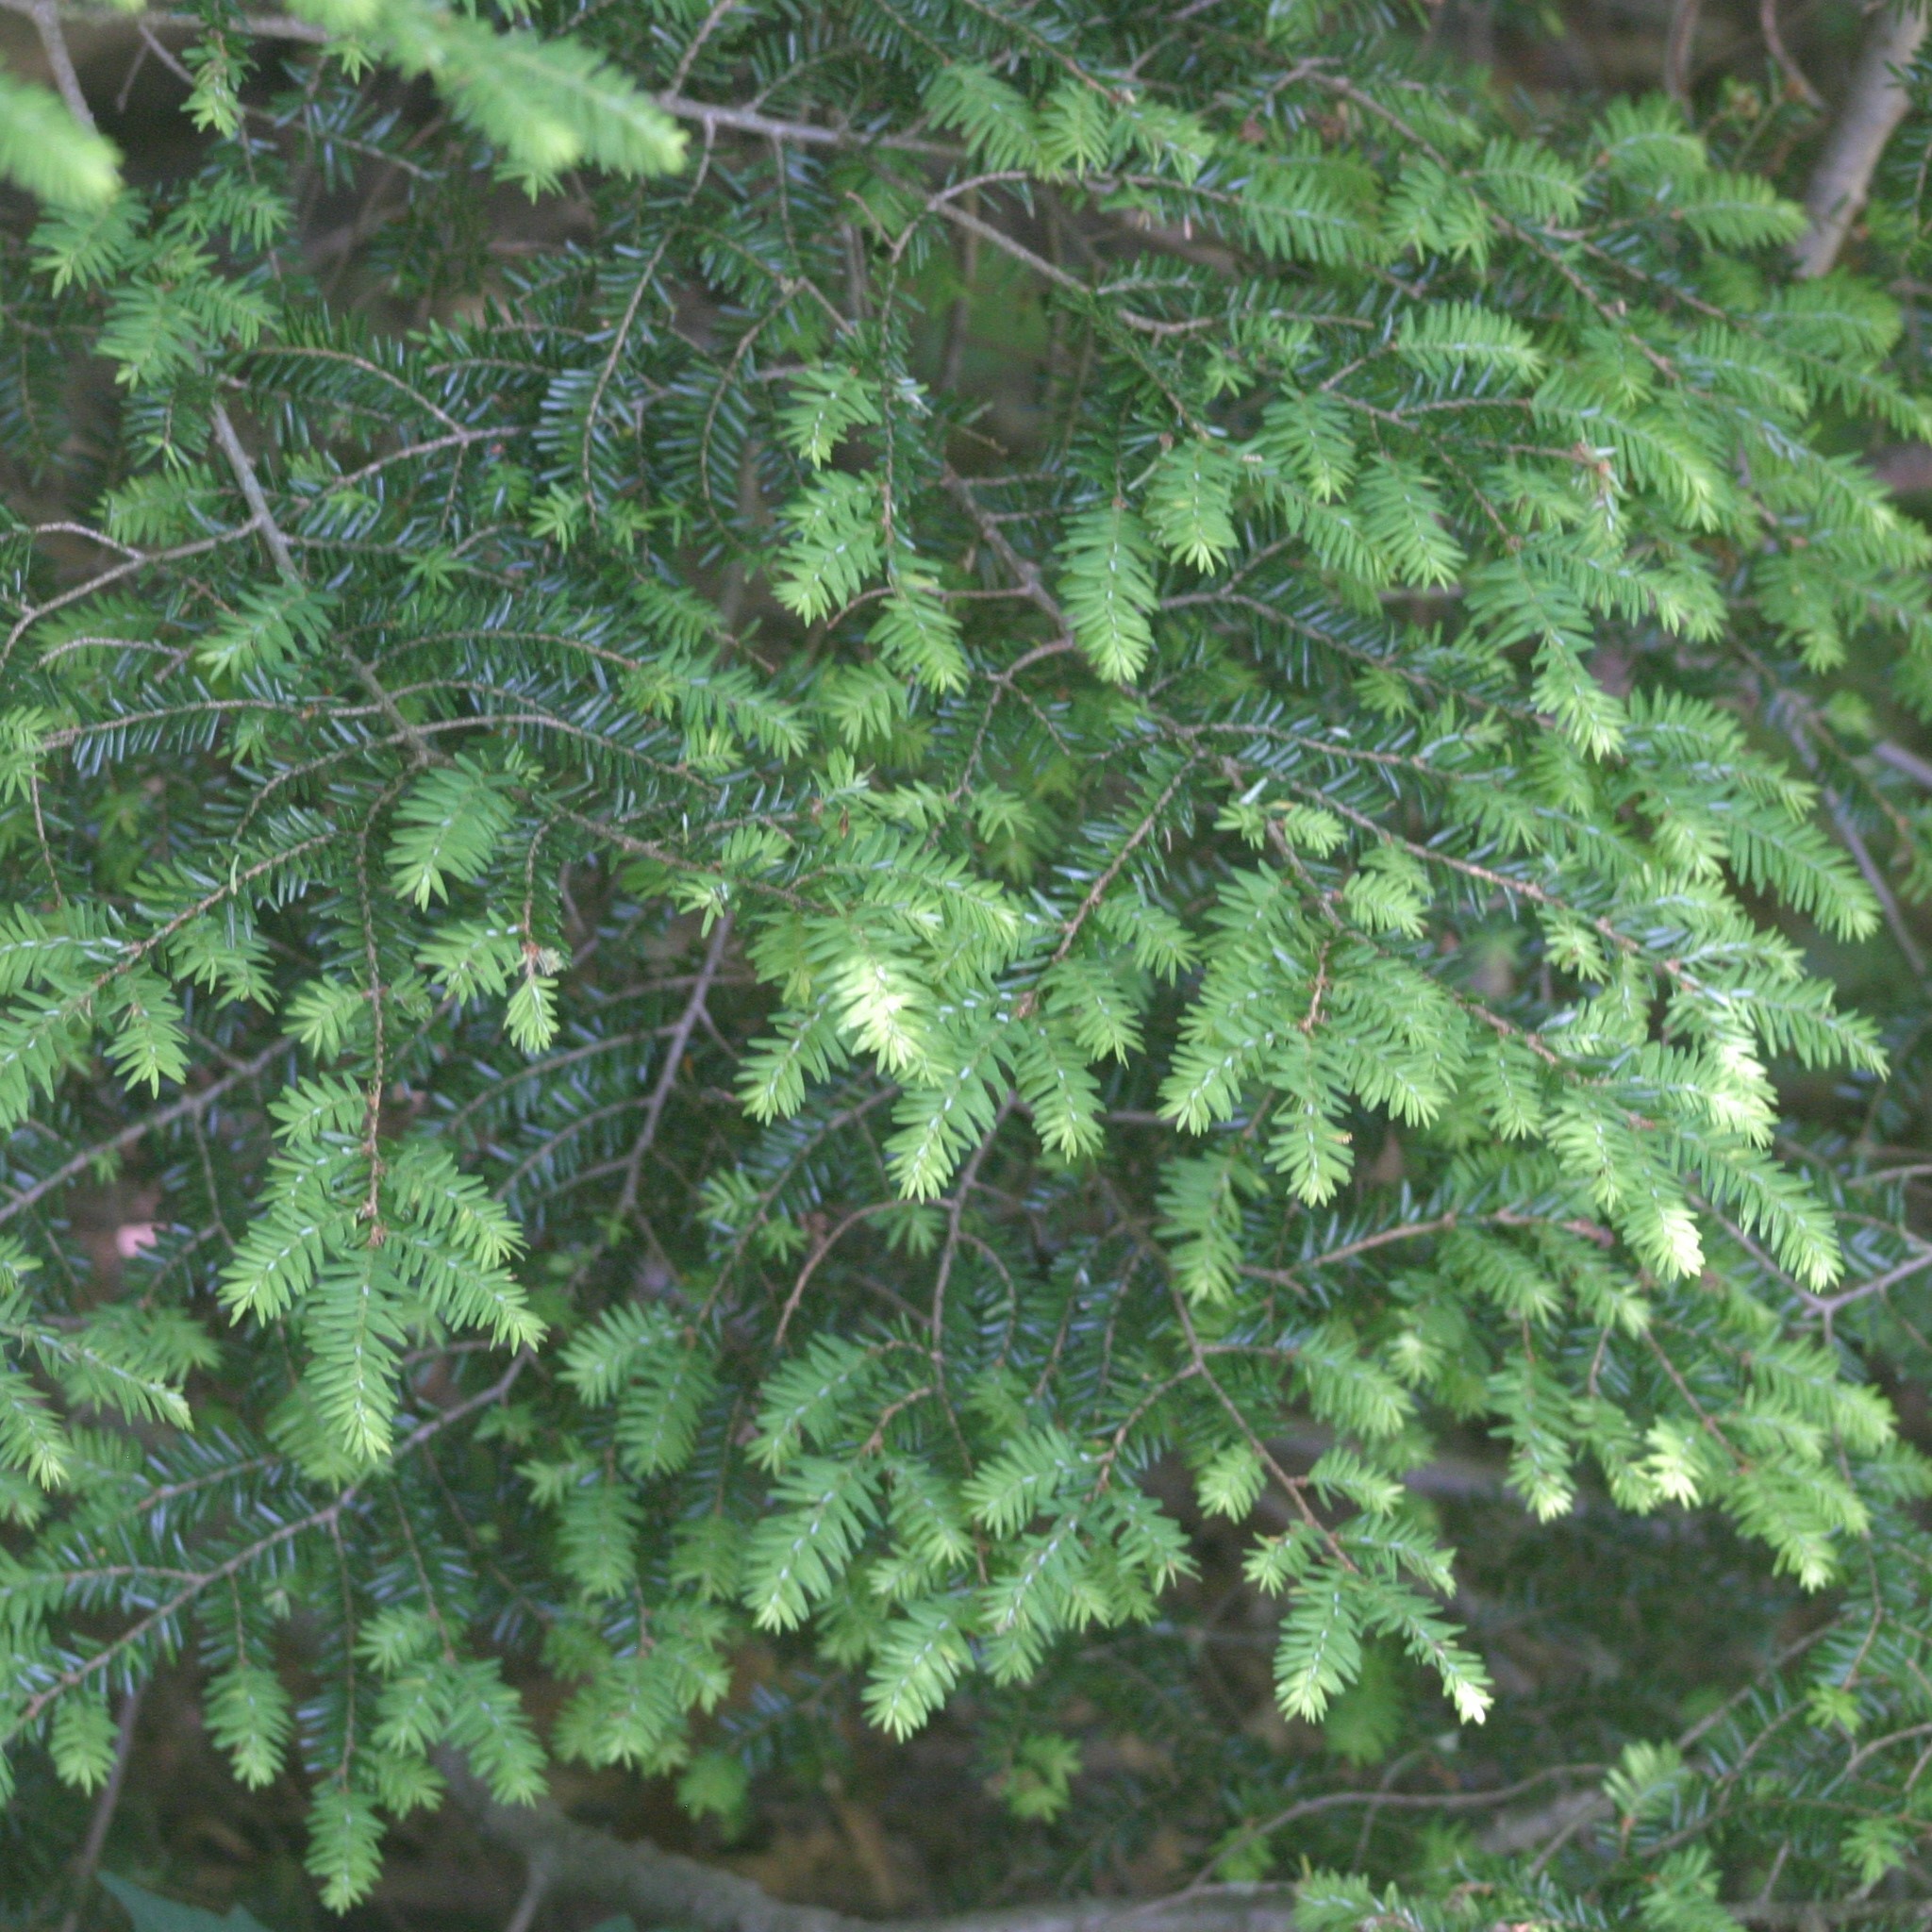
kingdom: Plantae
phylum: Tracheophyta
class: Pinopsida
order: Pinales
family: Pinaceae
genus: Tsuga
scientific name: Tsuga canadensis
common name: Eastern hemlock
